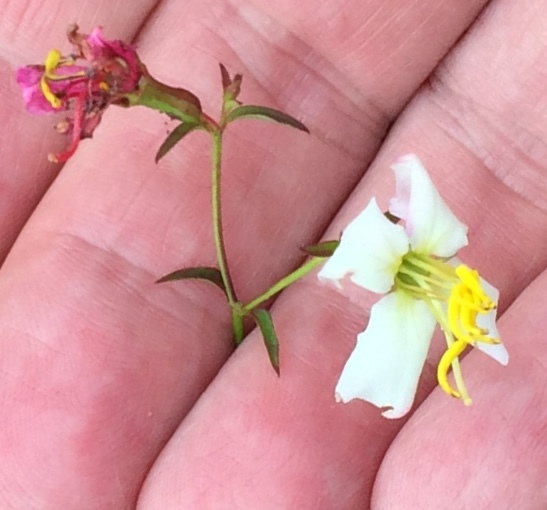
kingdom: Plantae
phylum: Tracheophyta
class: Magnoliopsida
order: Myrtales
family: Melastomataceae
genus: Rhexia
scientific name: Rhexia mariana
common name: Dull meadow-pitcher
